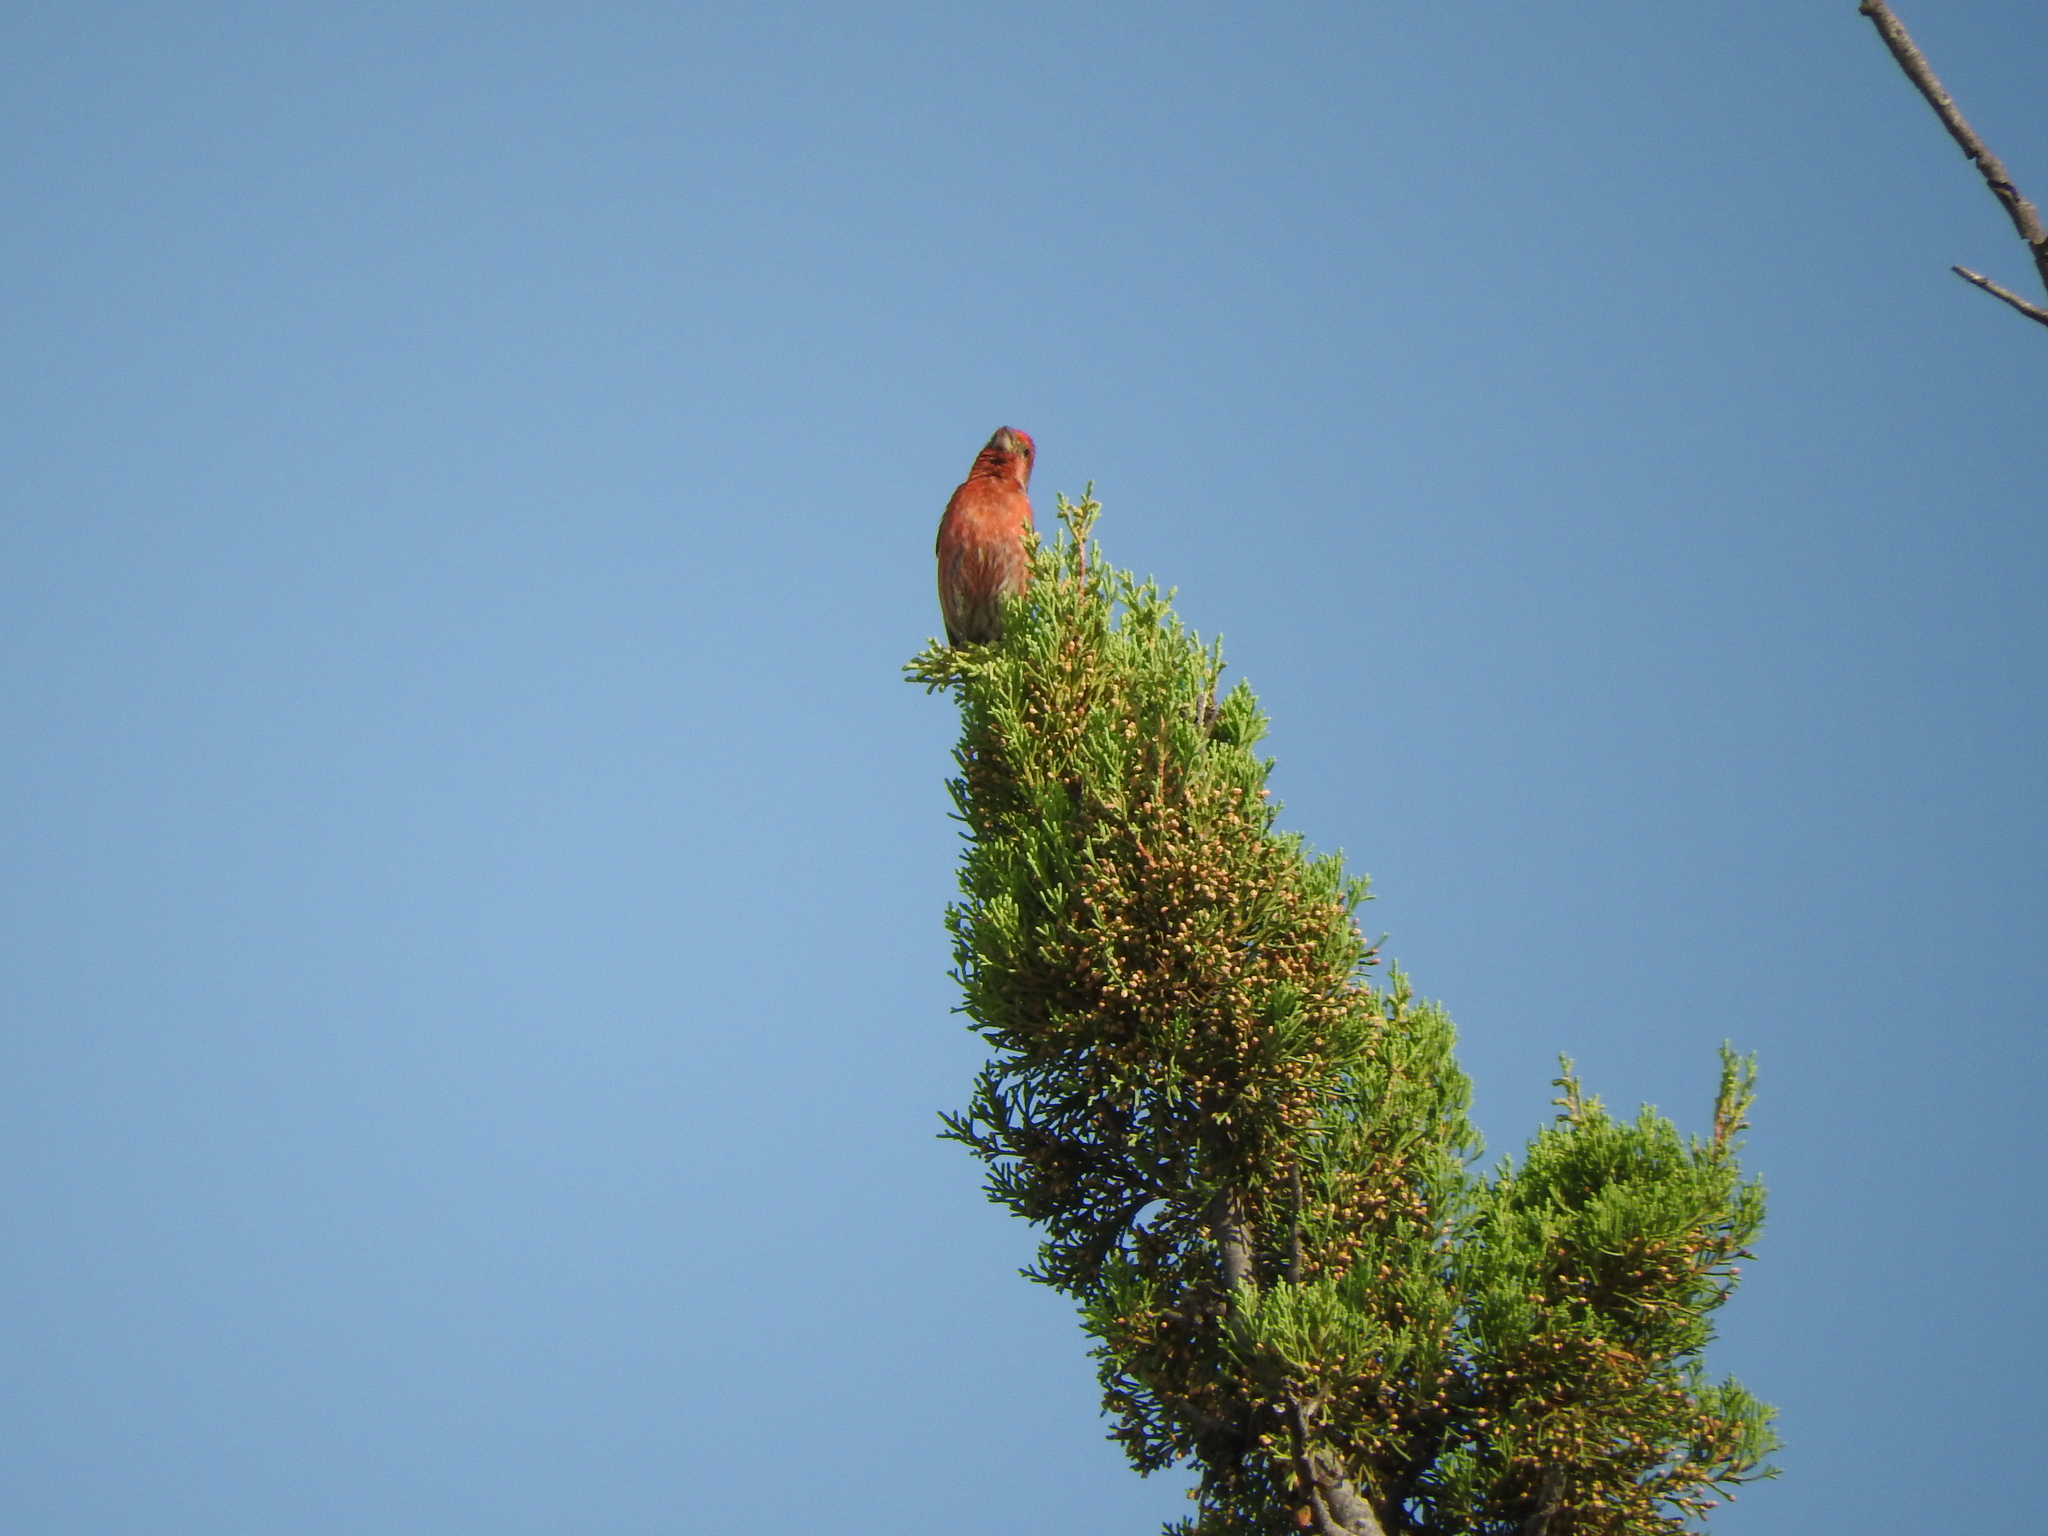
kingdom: Animalia
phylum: Chordata
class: Aves
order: Passeriformes
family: Fringillidae
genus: Haemorhous
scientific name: Haemorhous mexicanus
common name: House finch
